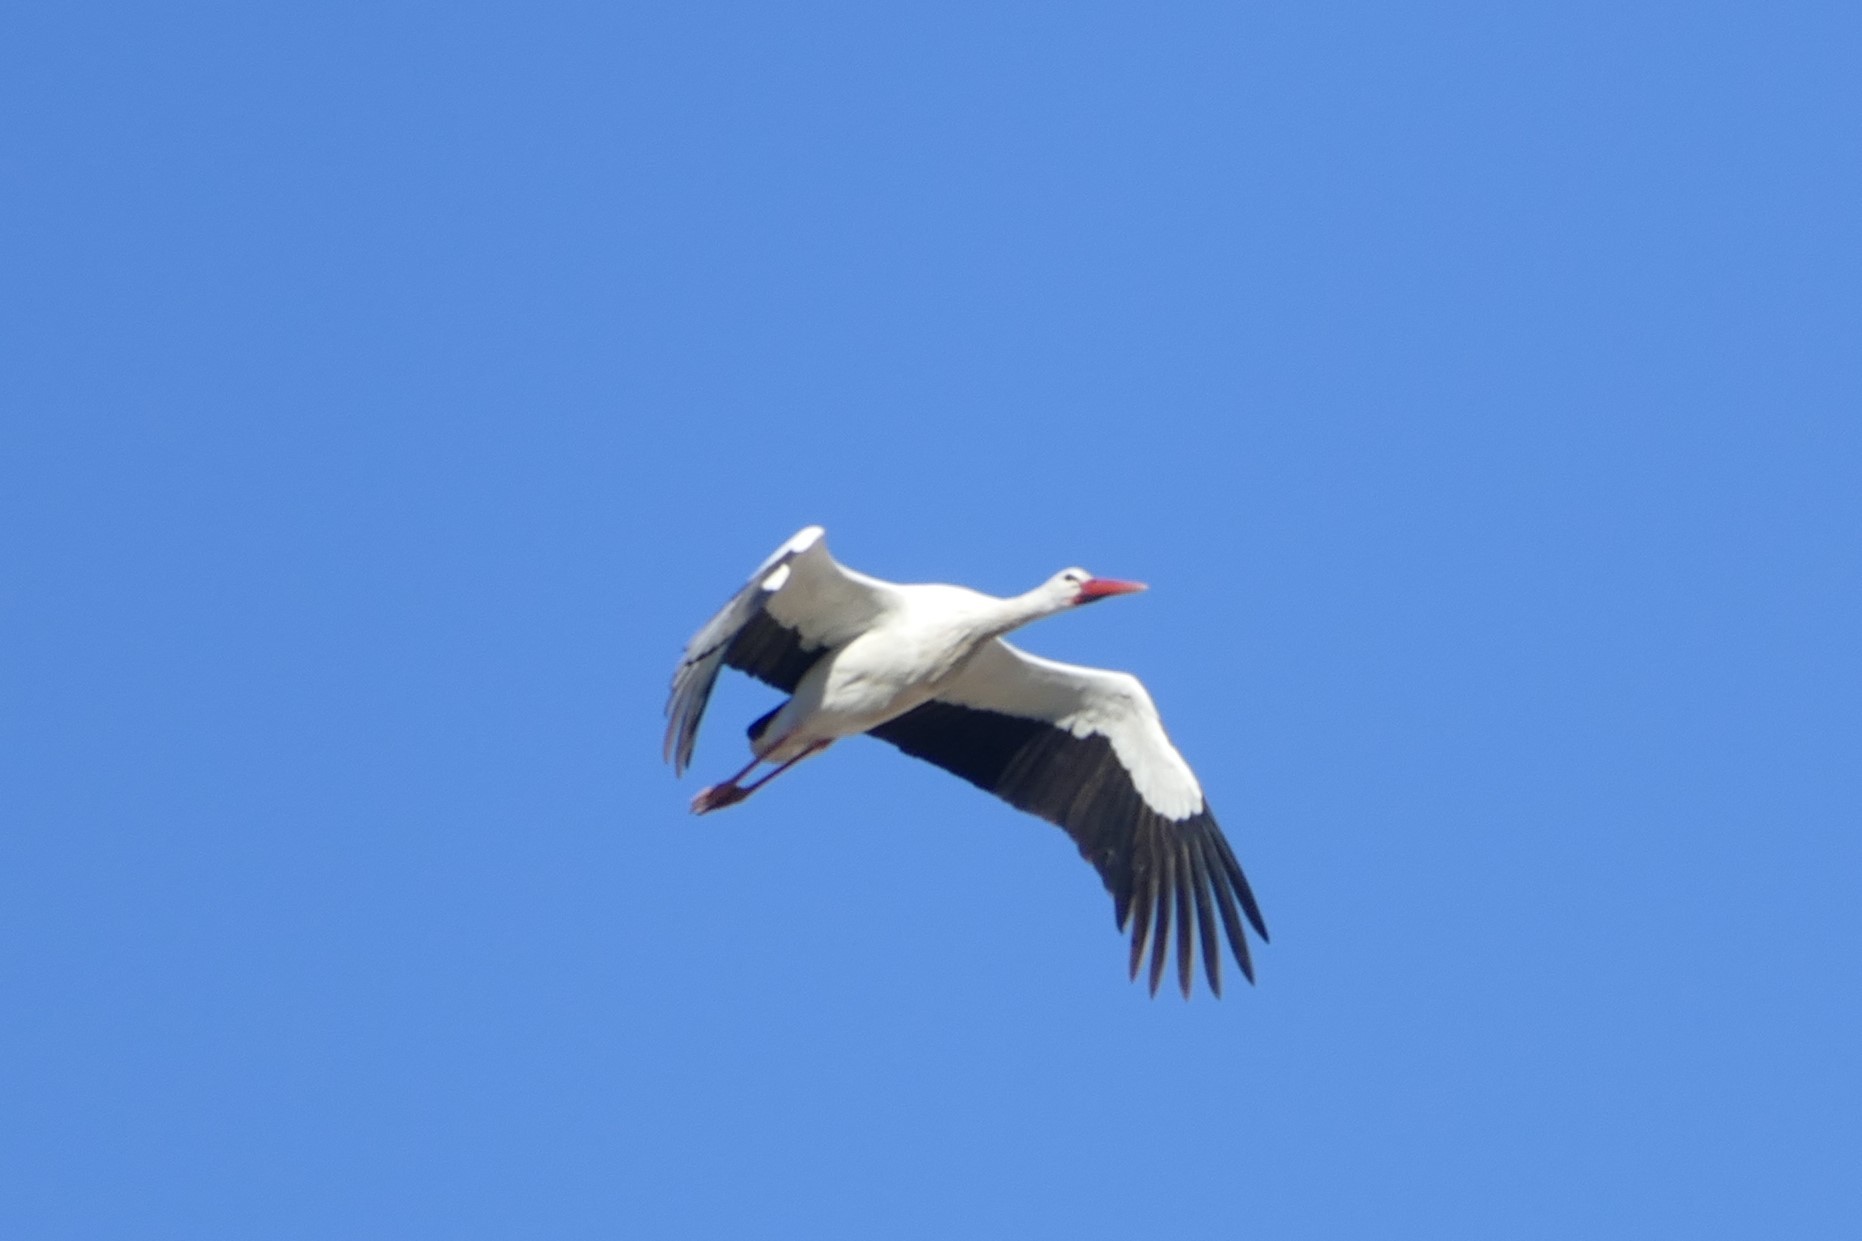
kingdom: Animalia
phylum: Chordata
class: Aves
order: Ciconiiformes
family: Ciconiidae
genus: Ciconia
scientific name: Ciconia ciconia
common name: White stork
